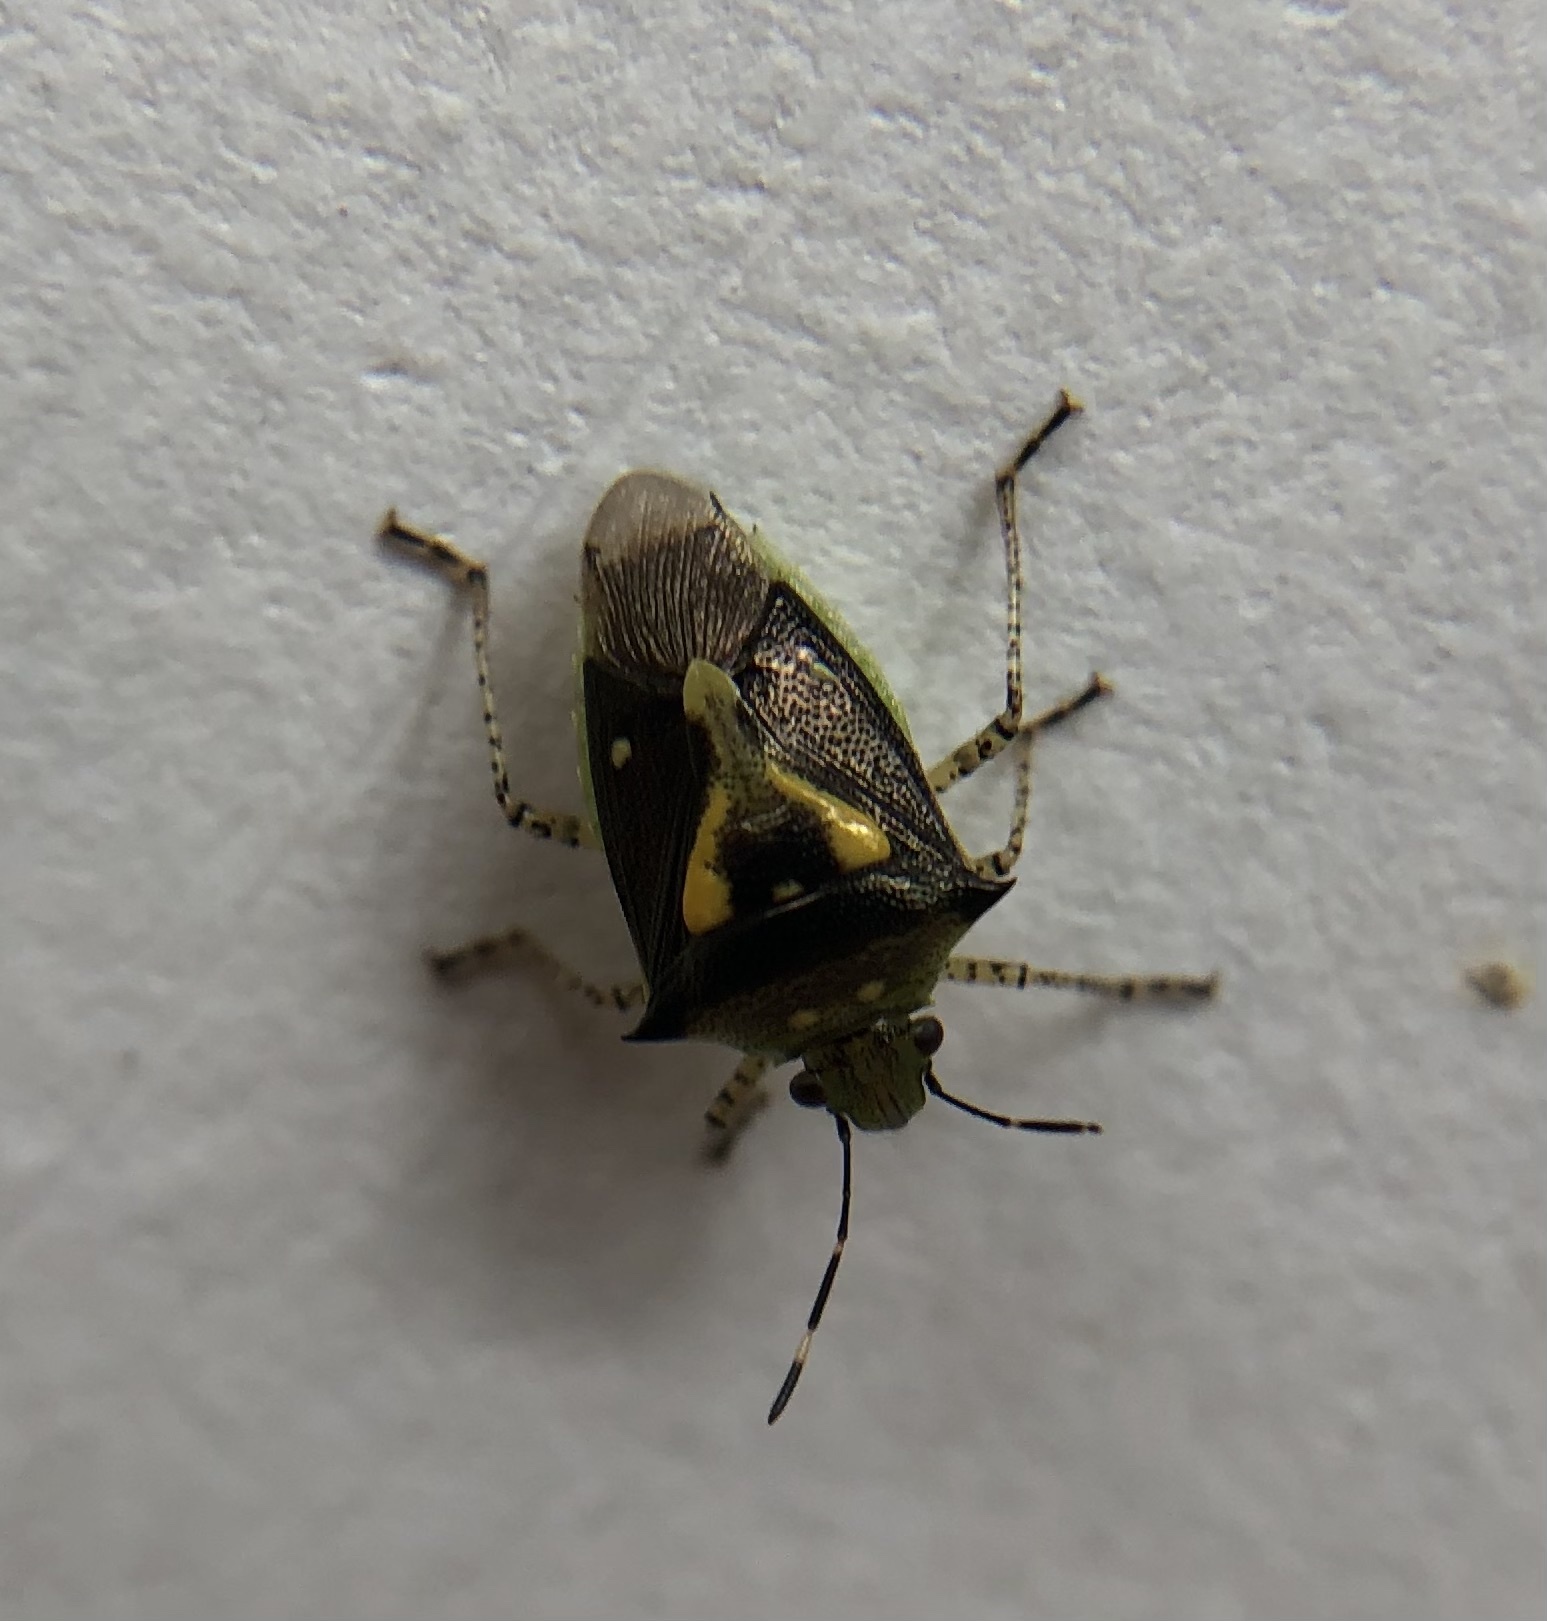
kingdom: Animalia
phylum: Arthropoda
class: Insecta
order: Hemiptera
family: Pentatomidae
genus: Mormidea
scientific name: Mormidea ypsilon
